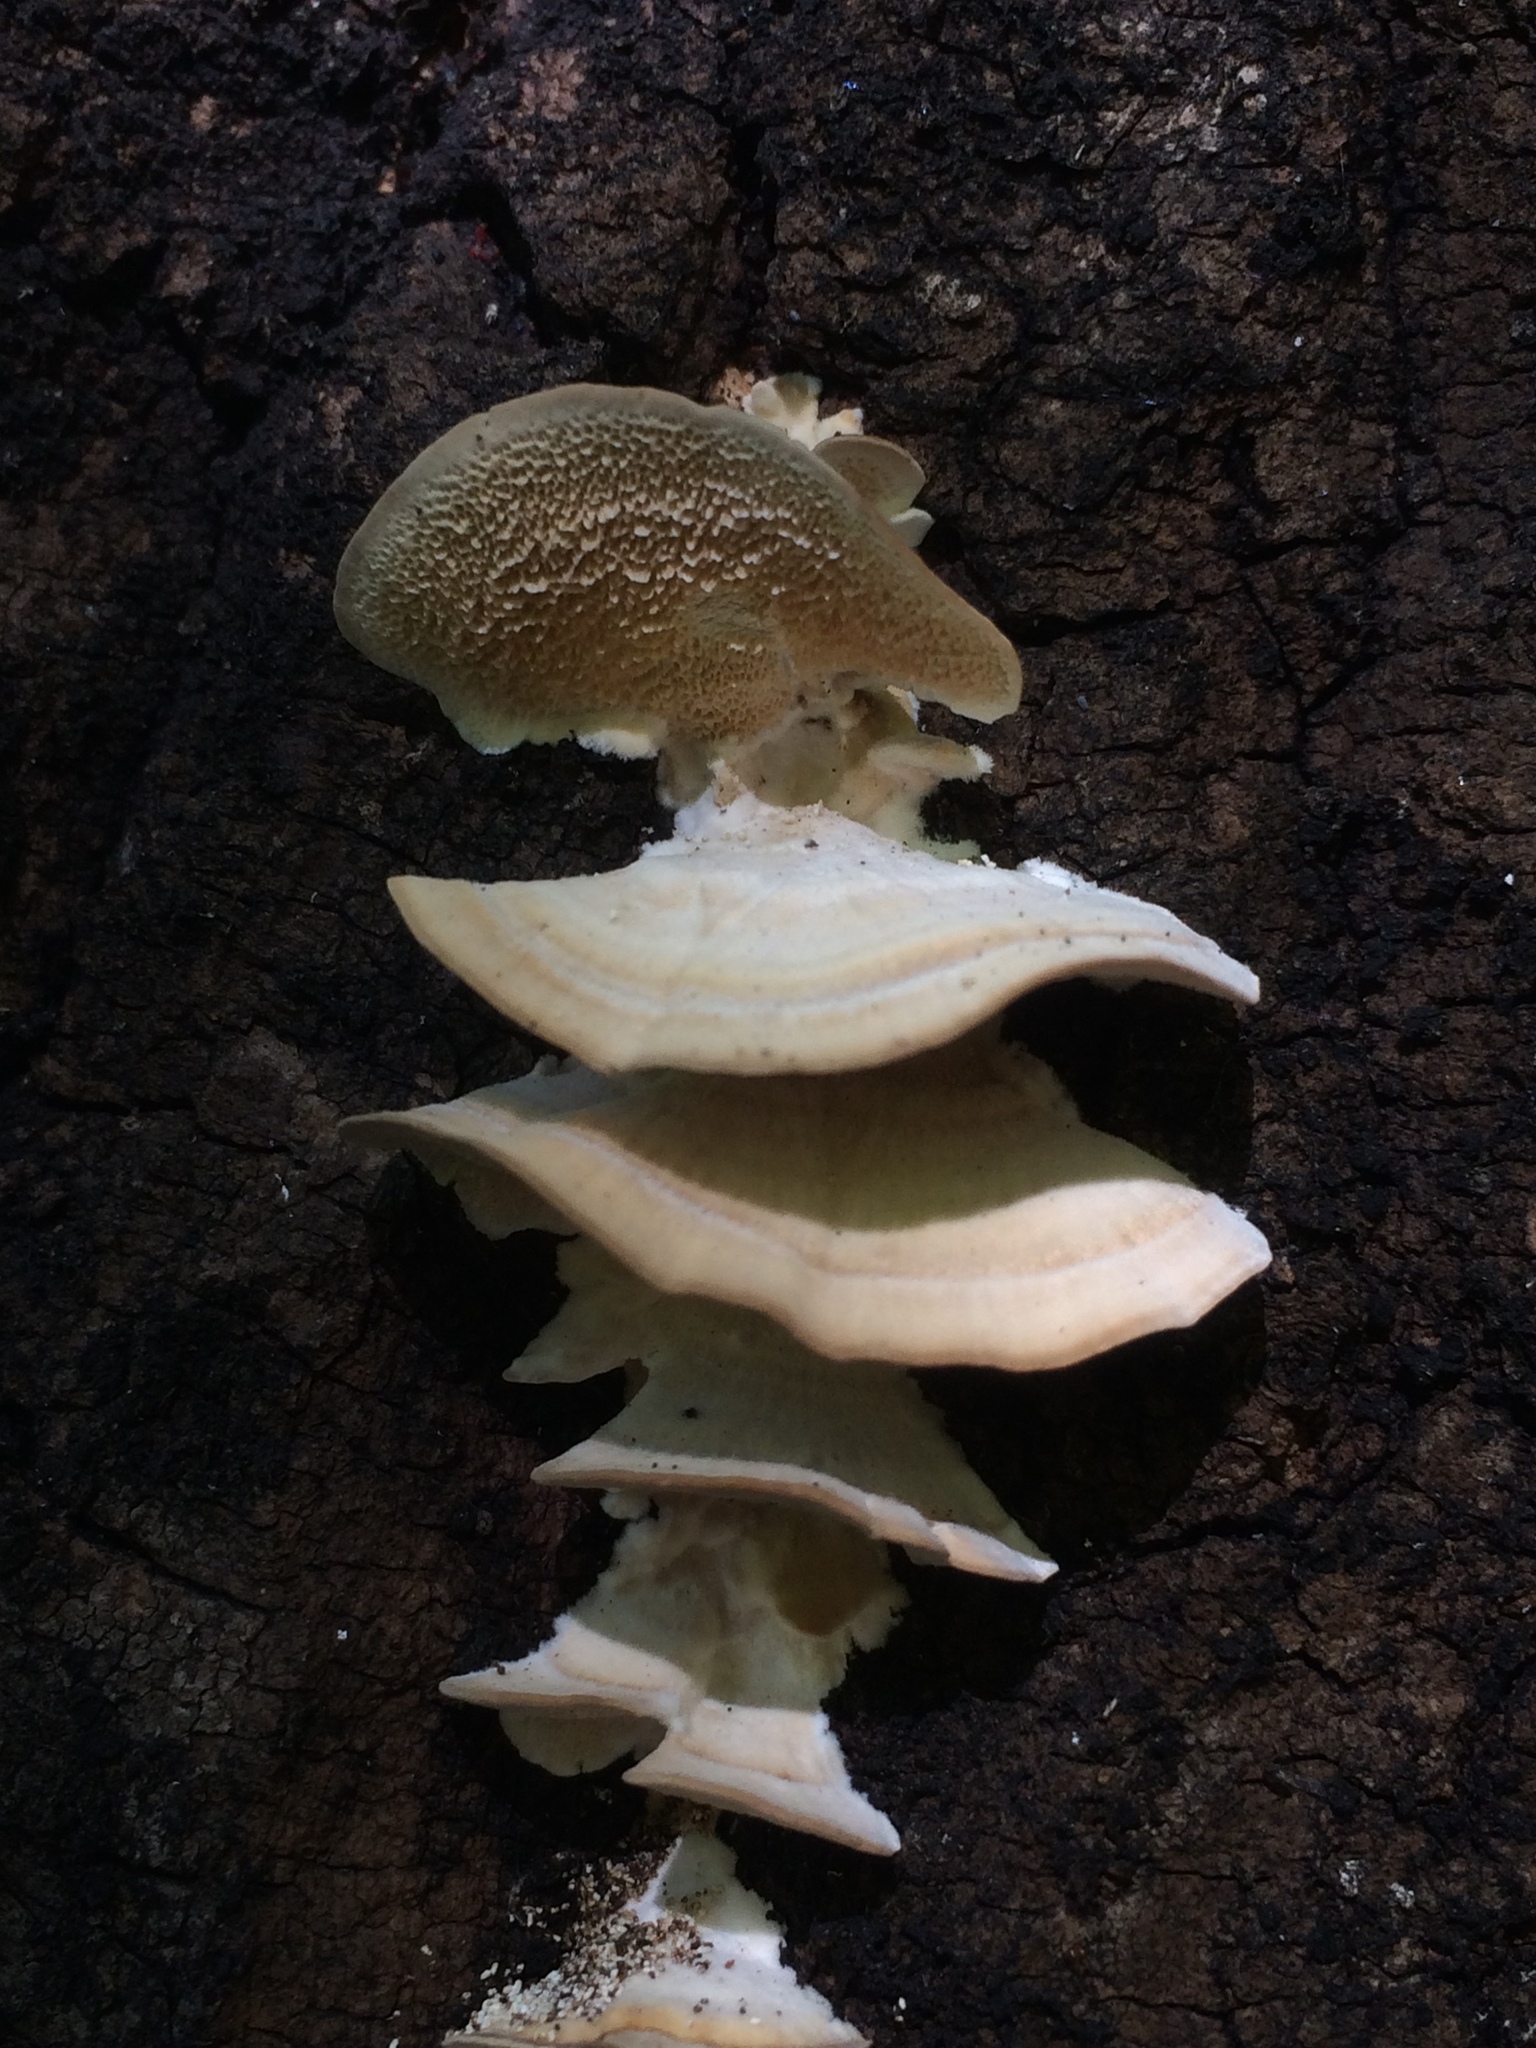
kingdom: Fungi
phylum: Basidiomycota
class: Agaricomycetes
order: Polyporales
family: Polyporaceae
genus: Trametes
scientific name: Trametes versicolor
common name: Turkeytail
